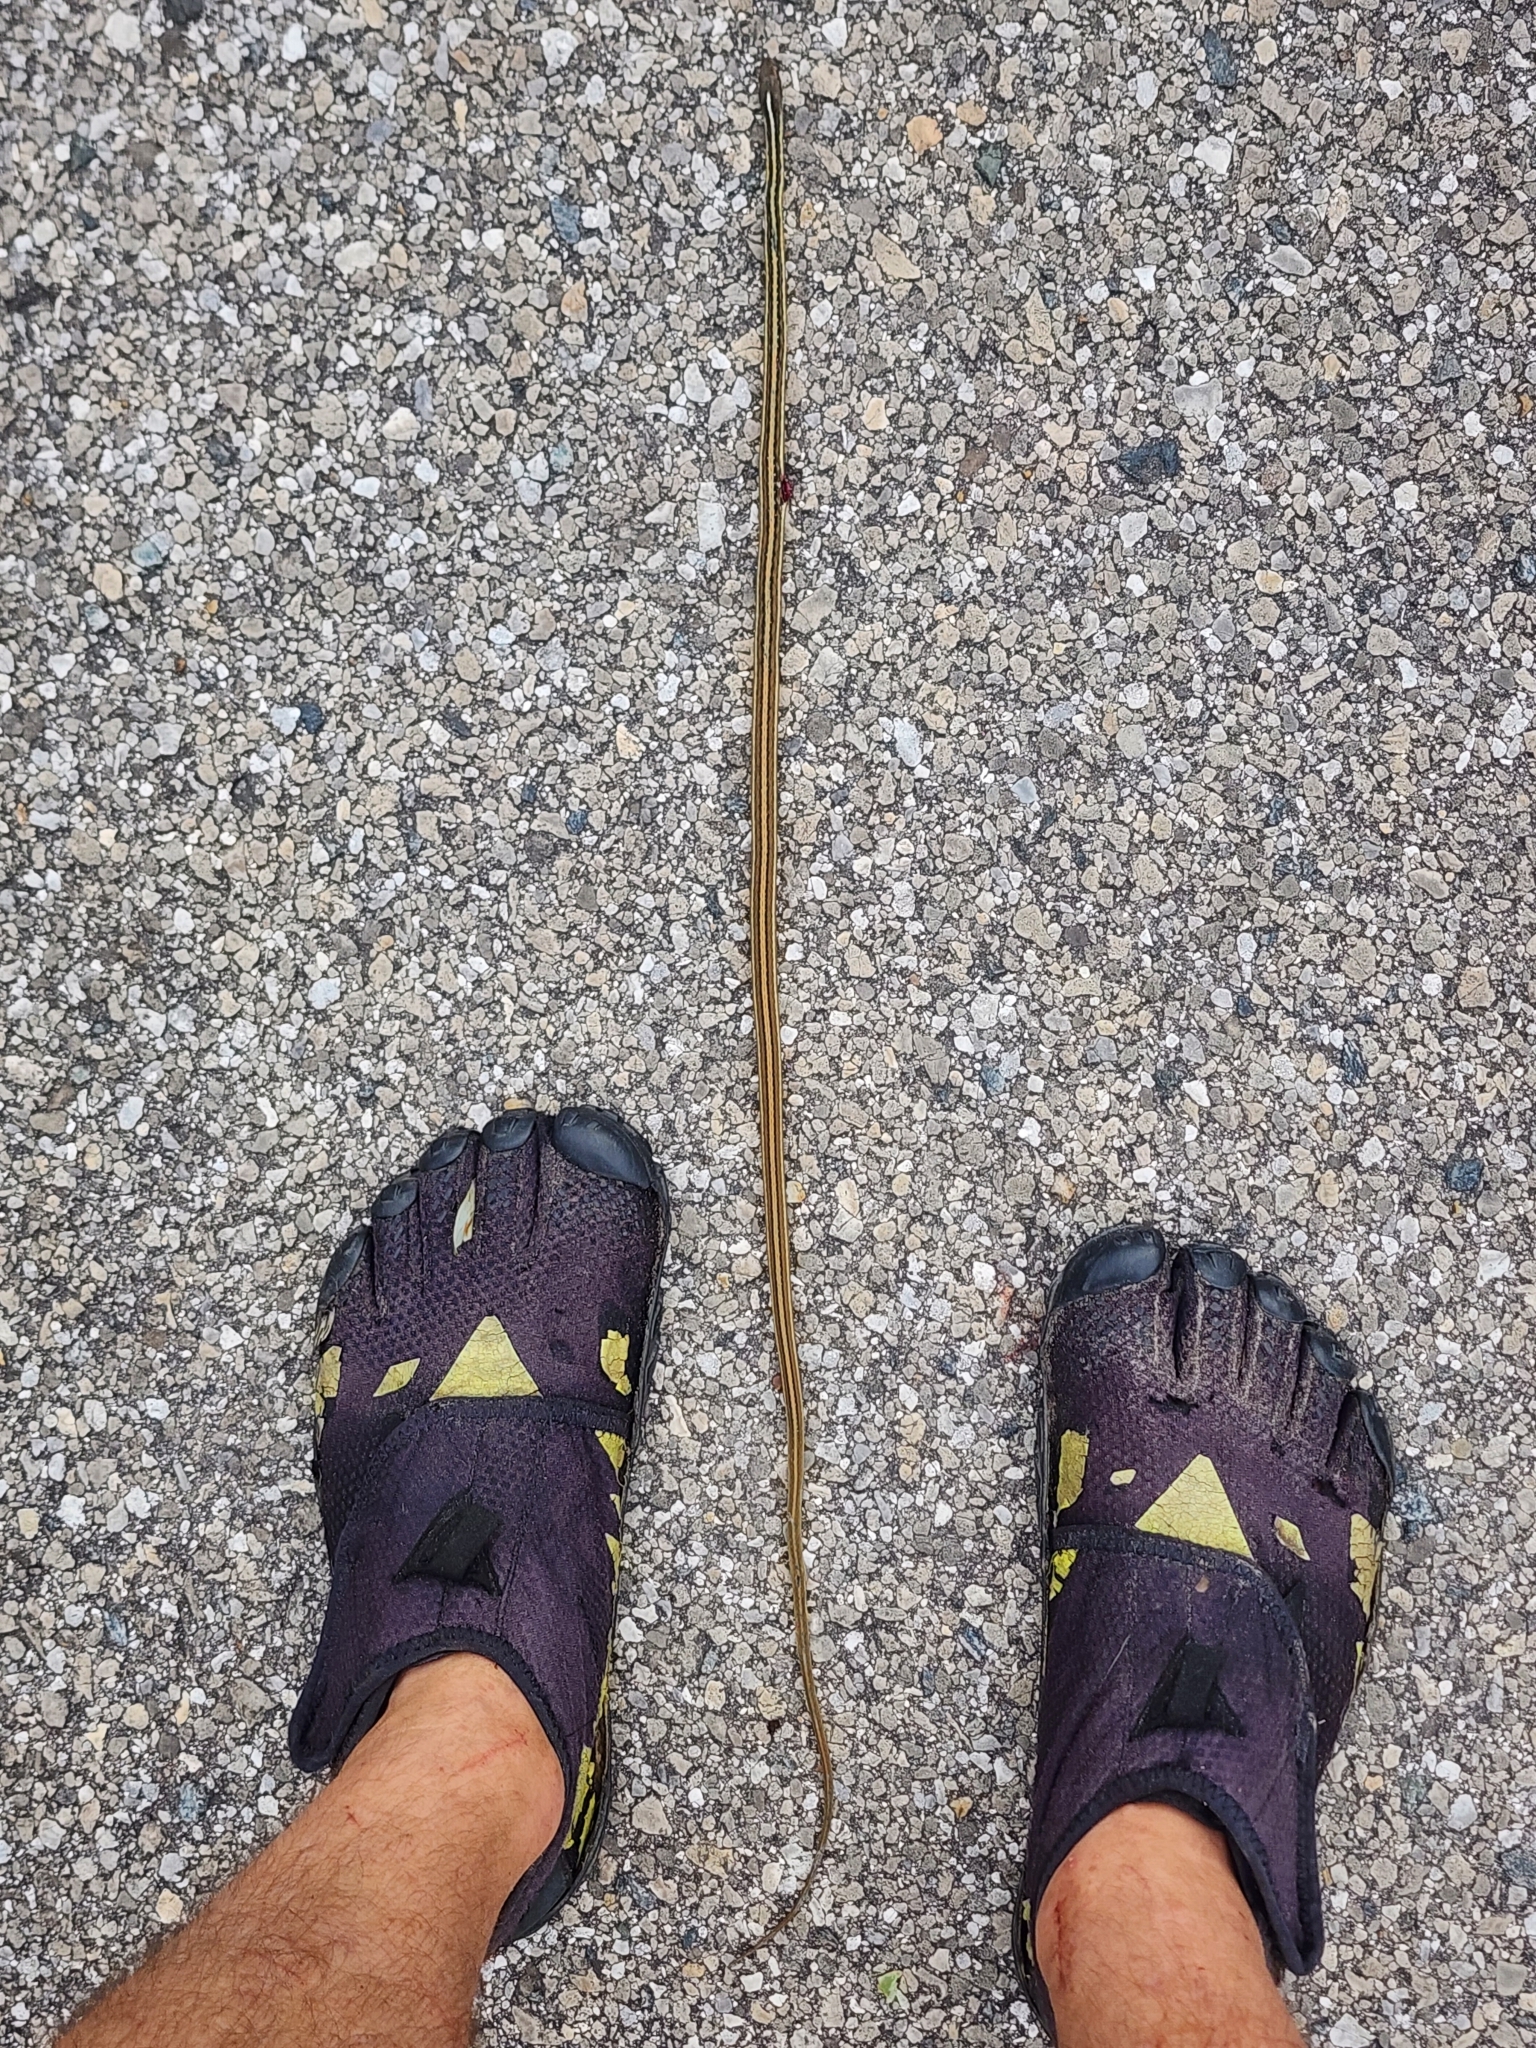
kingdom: Animalia
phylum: Chordata
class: Squamata
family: Colubridae
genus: Thamnophis
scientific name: Thamnophis saurita
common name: Eastern ribbonsnake
